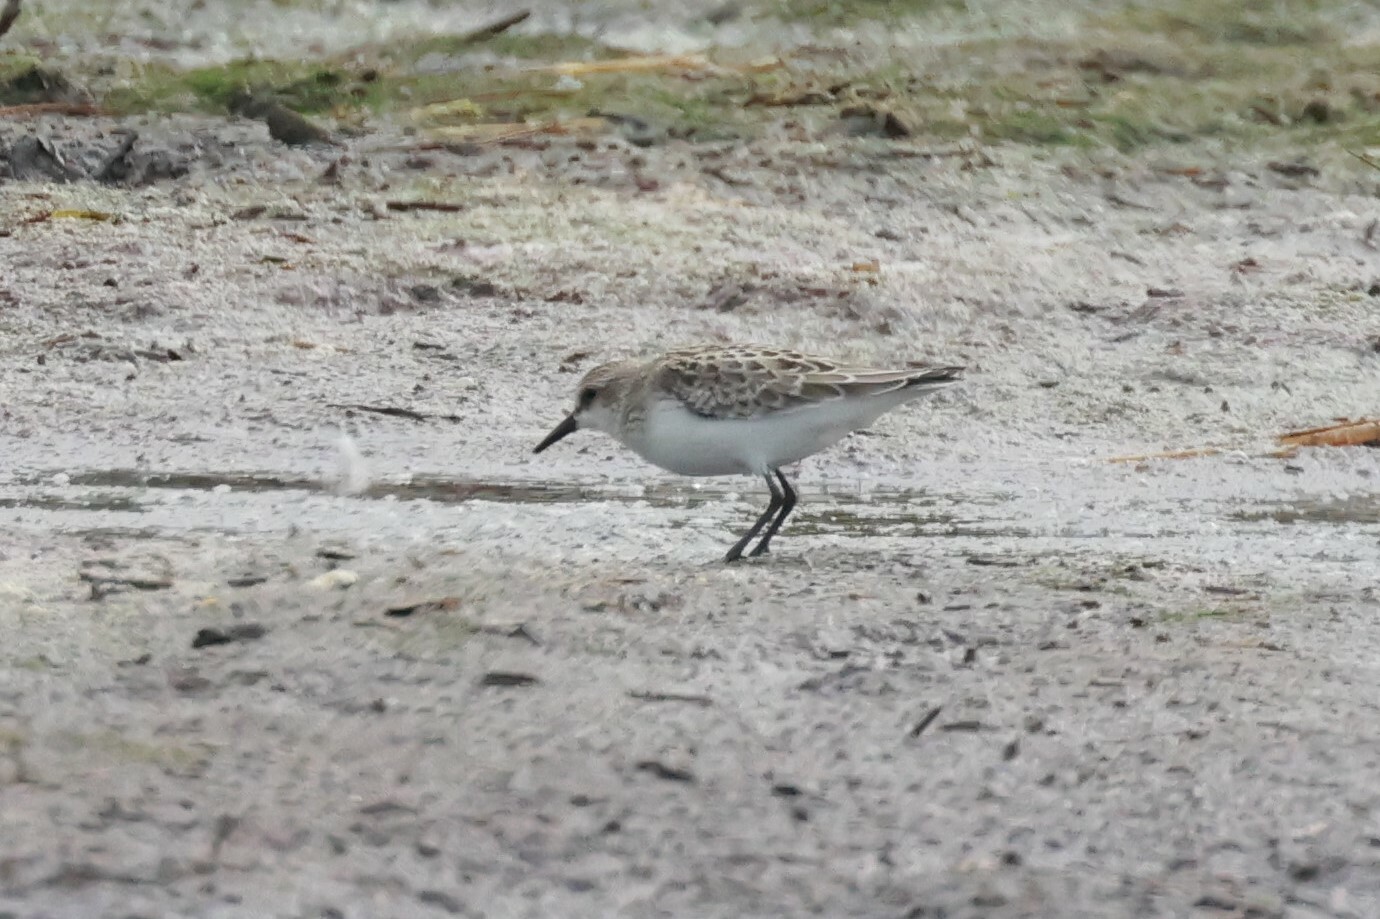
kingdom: Animalia
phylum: Chordata
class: Aves
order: Charadriiformes
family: Scolopacidae
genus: Calidris
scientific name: Calidris pusilla
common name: Semipalmated sandpiper
